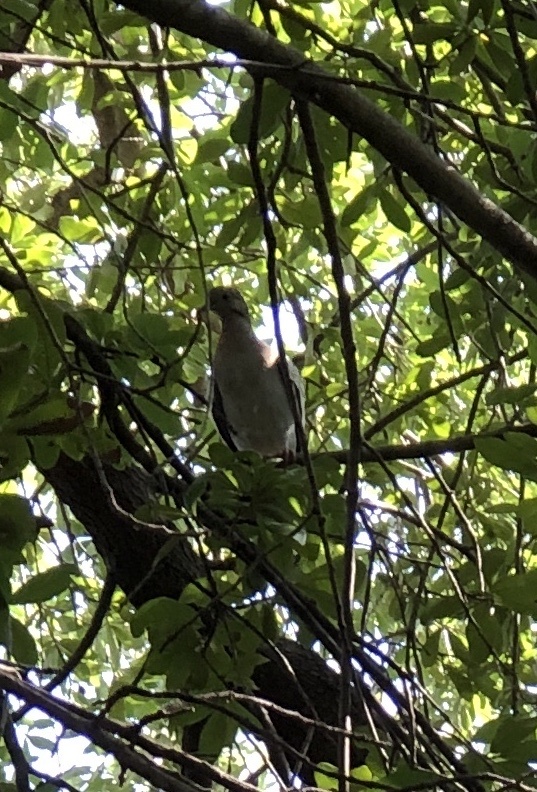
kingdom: Animalia
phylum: Chordata
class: Aves
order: Columbiformes
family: Columbidae
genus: Zenaida
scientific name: Zenaida asiatica
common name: White-winged dove
